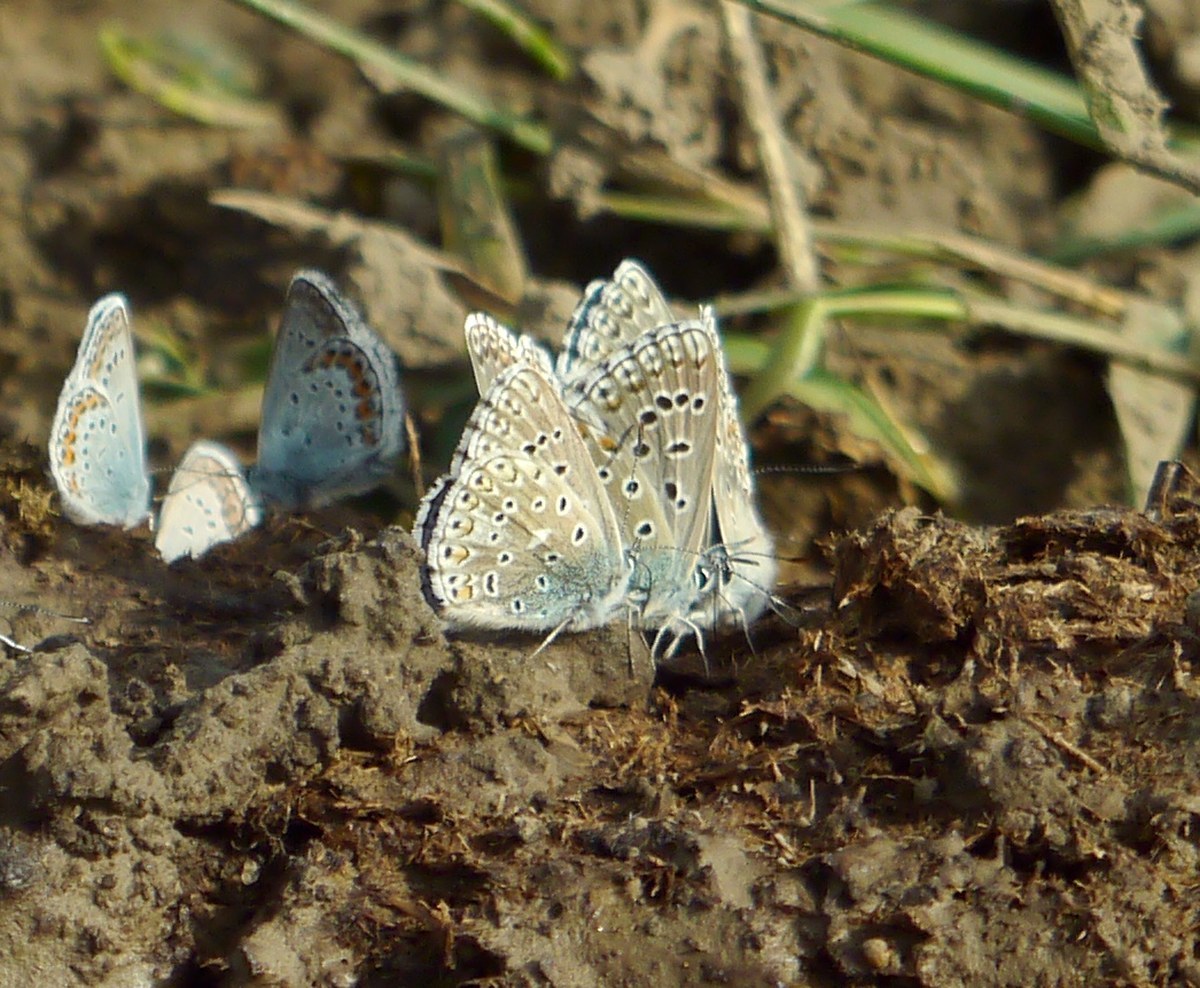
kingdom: Animalia
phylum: Arthropoda
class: Insecta
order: Lepidoptera
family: Lycaenidae
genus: Lysandra
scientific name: Lysandra bellargus
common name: Adonis blue
